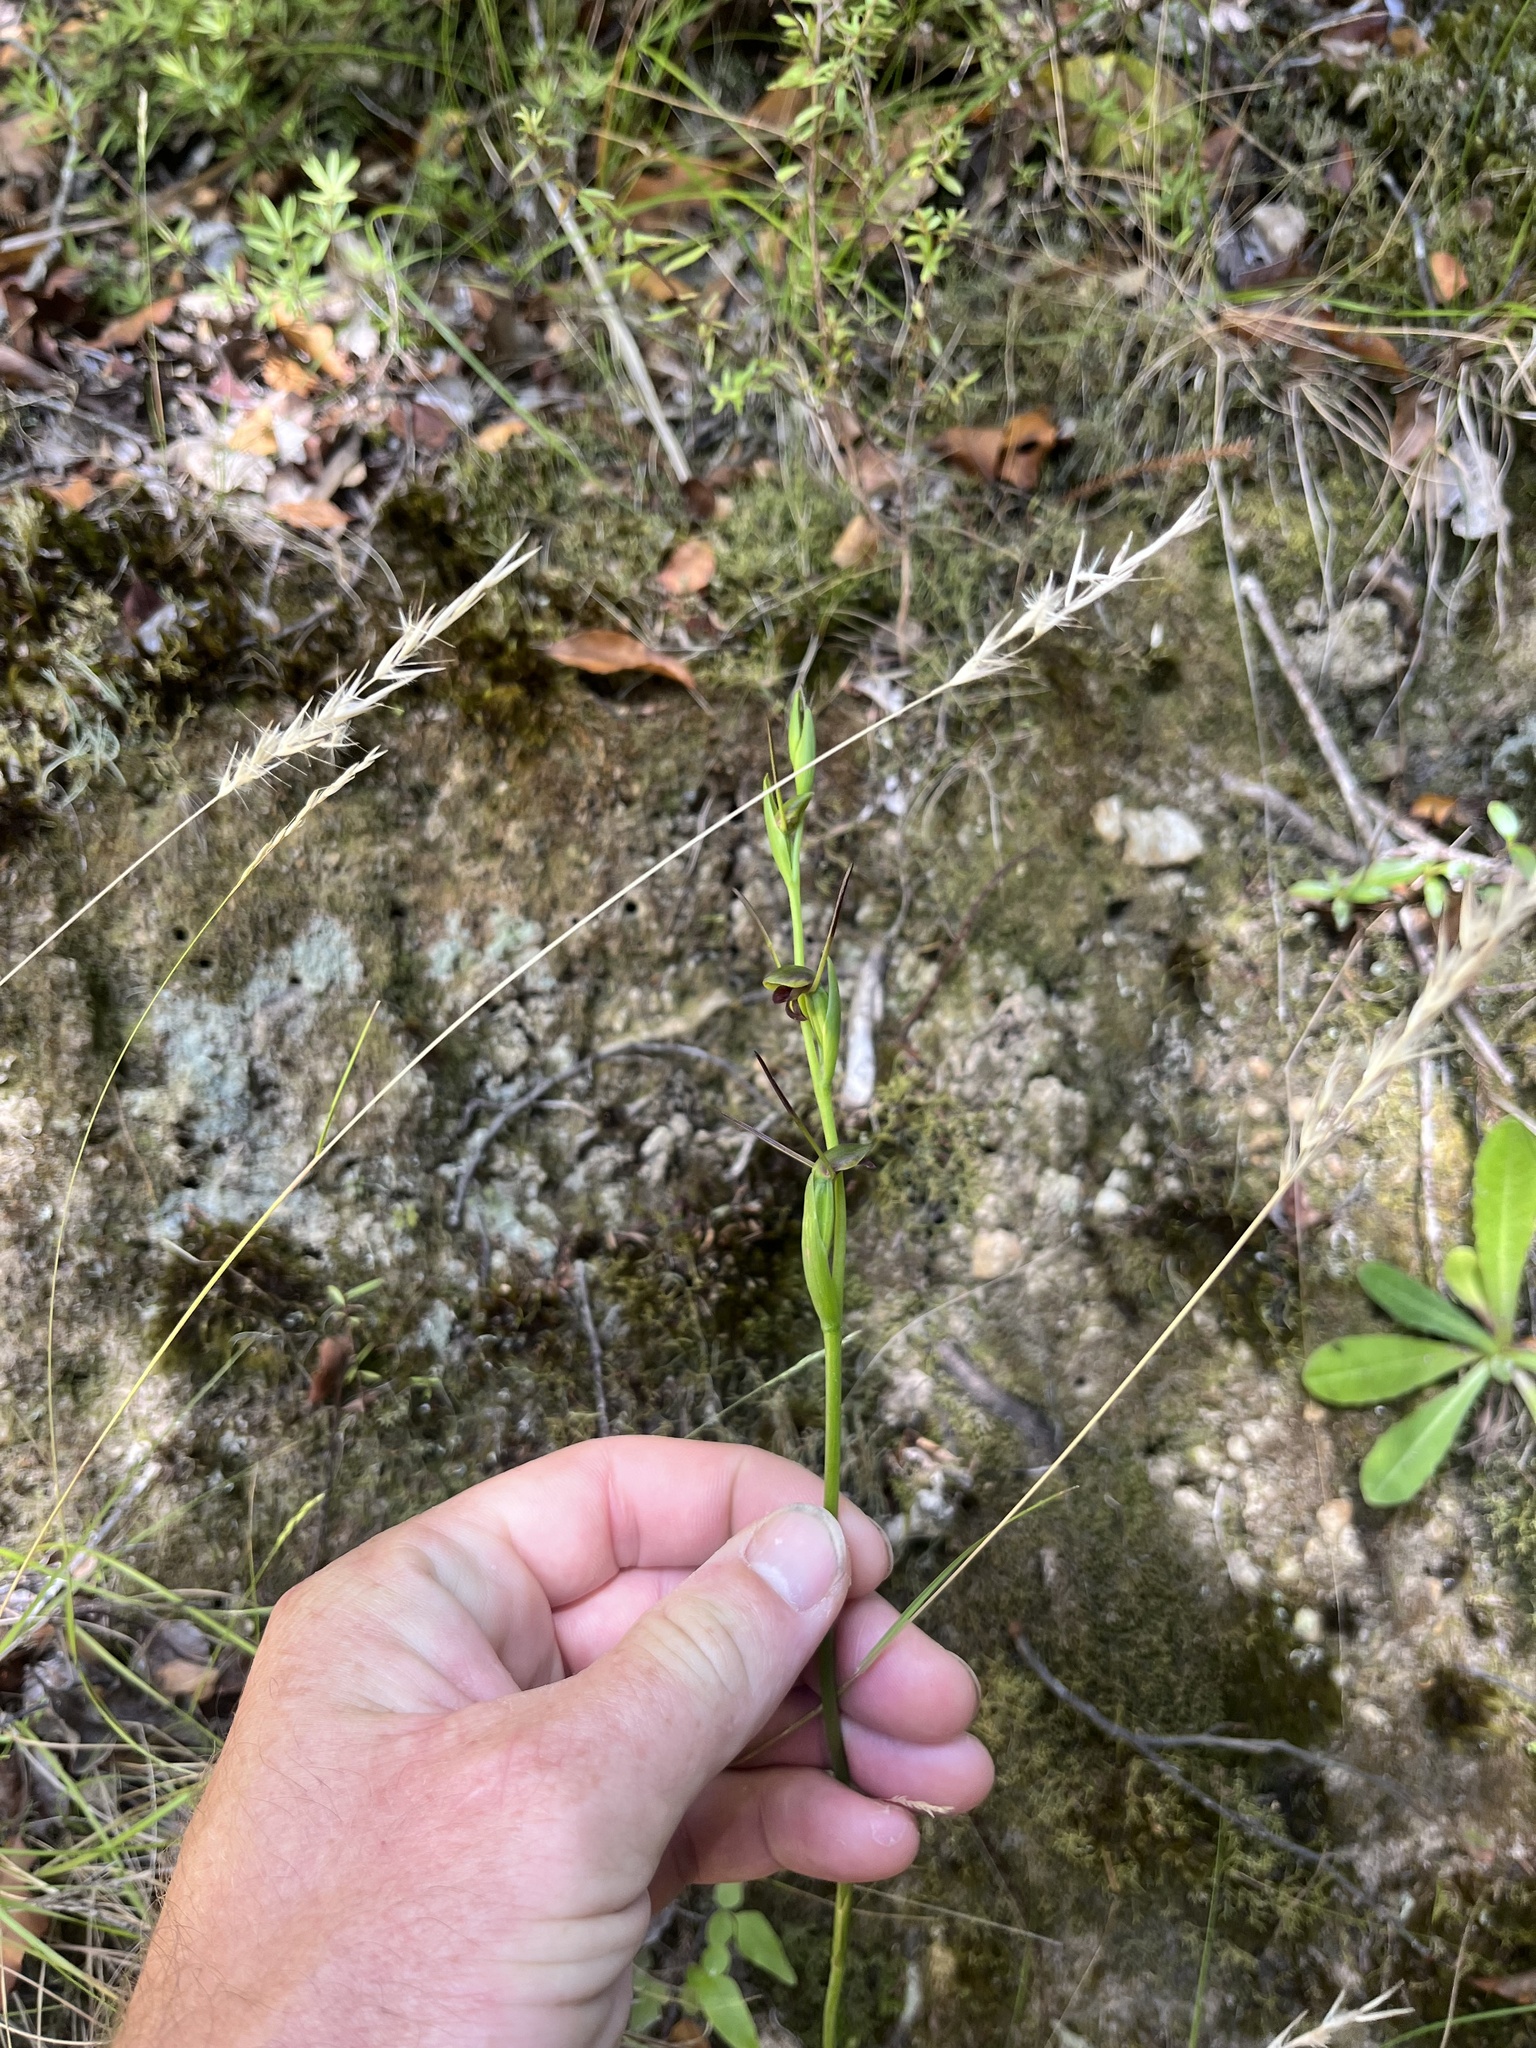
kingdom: Plantae
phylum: Tracheophyta
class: Liliopsida
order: Asparagales
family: Orchidaceae
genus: Orthoceras
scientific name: Orthoceras novae-zeelandiae
